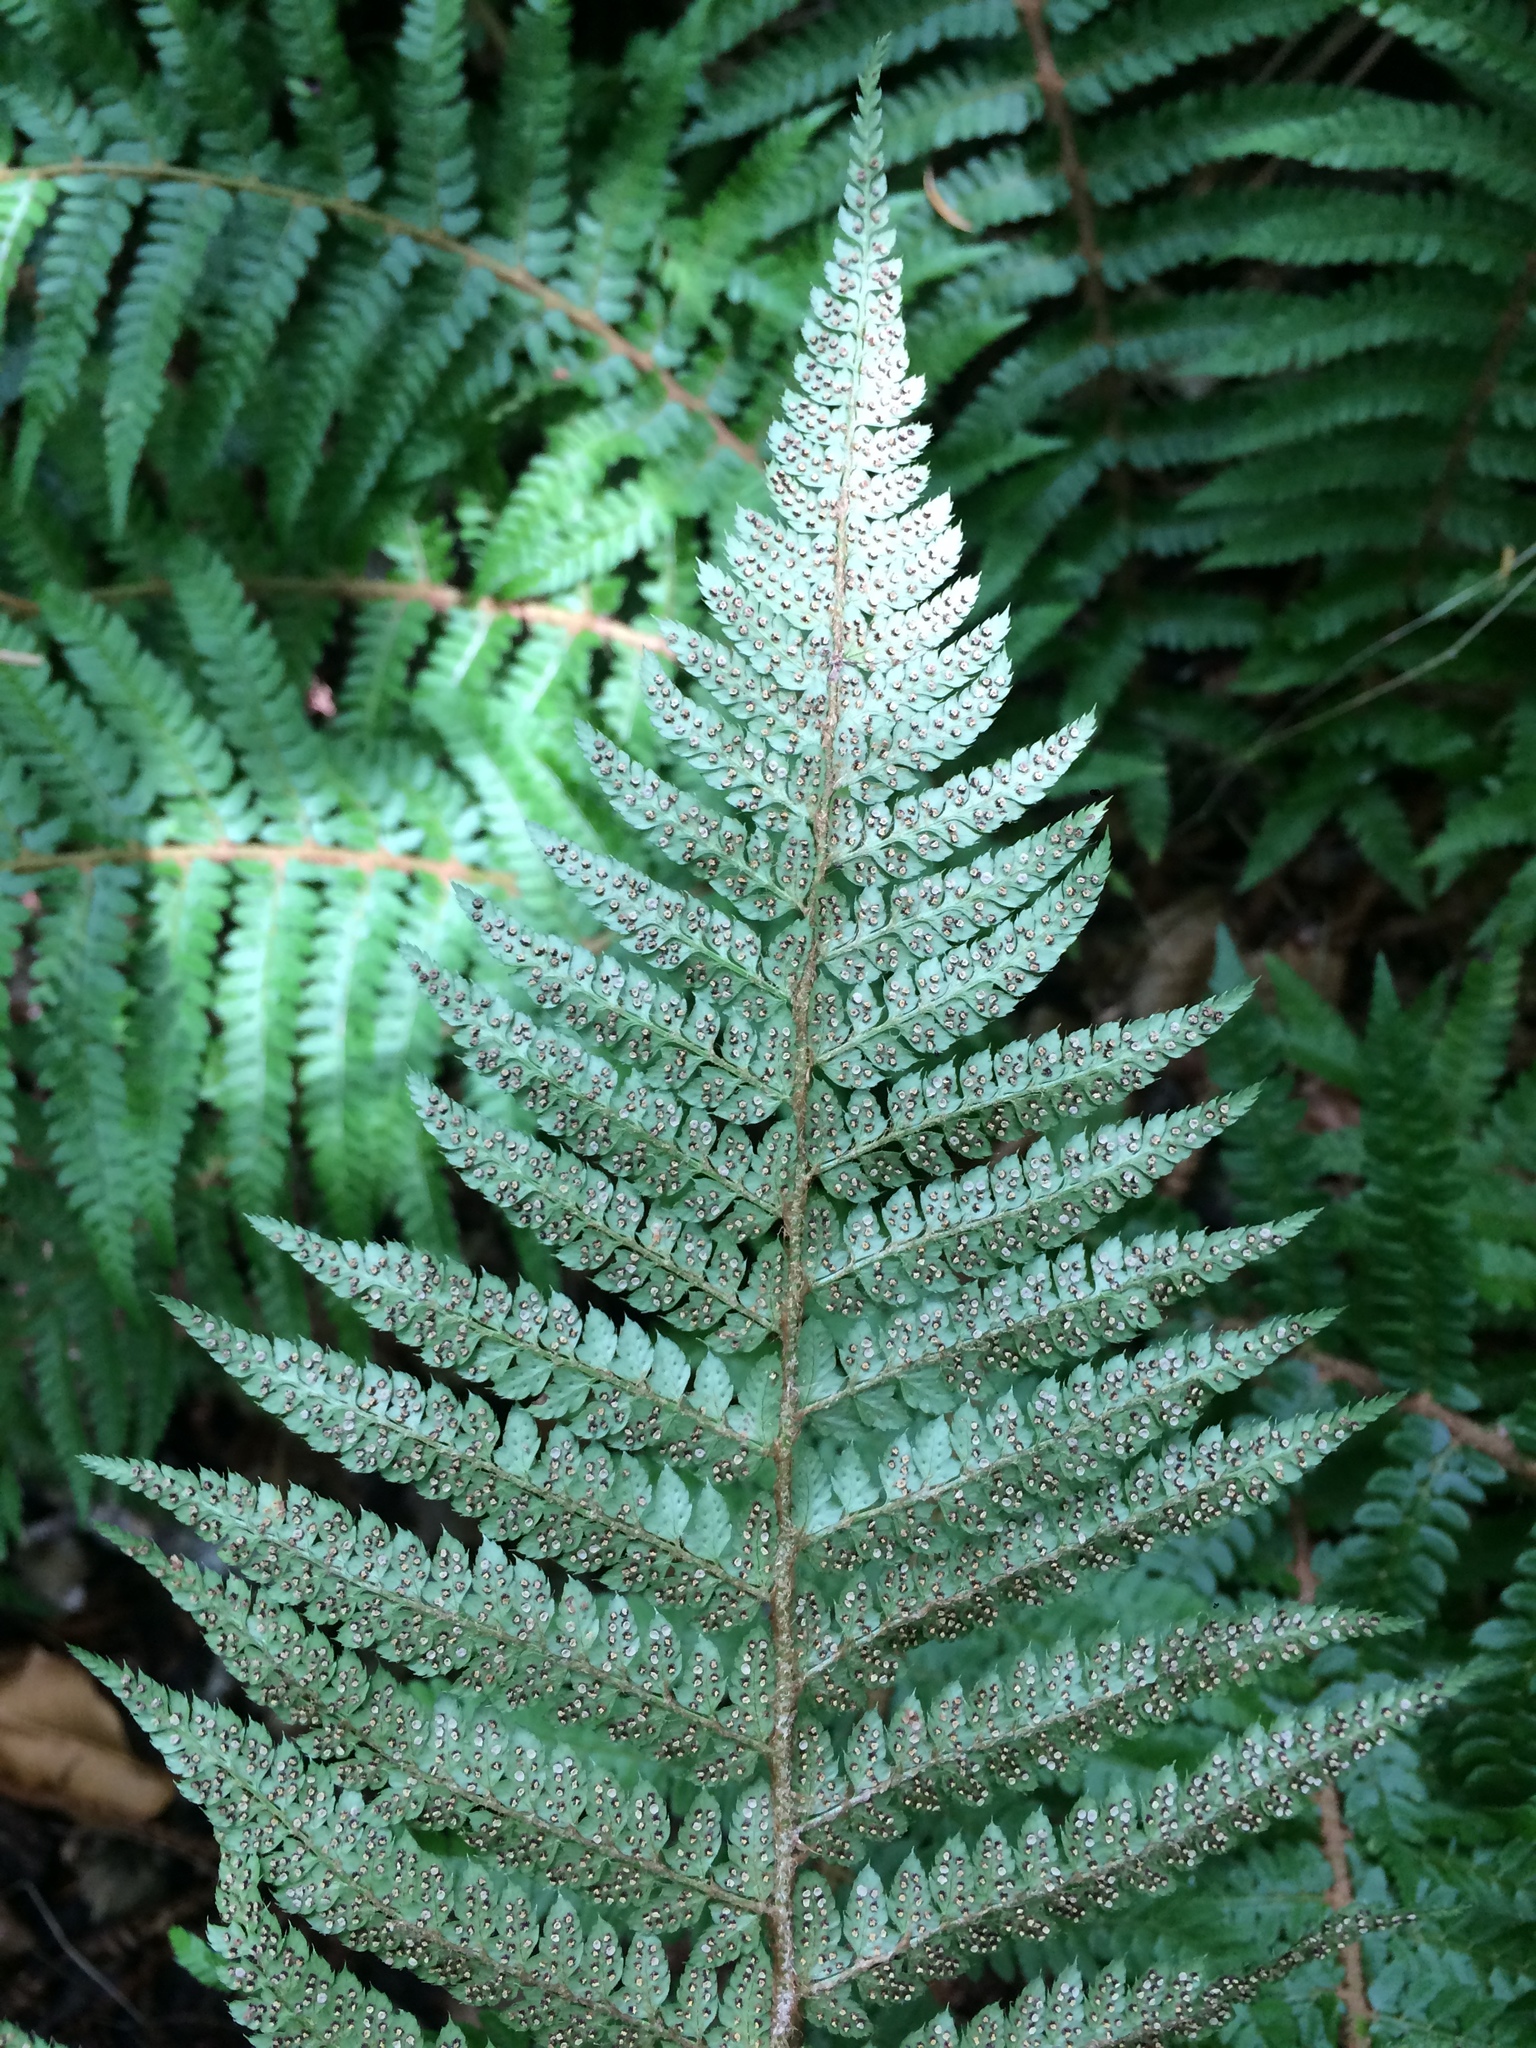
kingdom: Plantae
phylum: Tracheophyta
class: Polypodiopsida
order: Polypodiales
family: Dryopteridaceae
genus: Polystichum
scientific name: Polystichum setiferum
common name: Soft shield-fern
